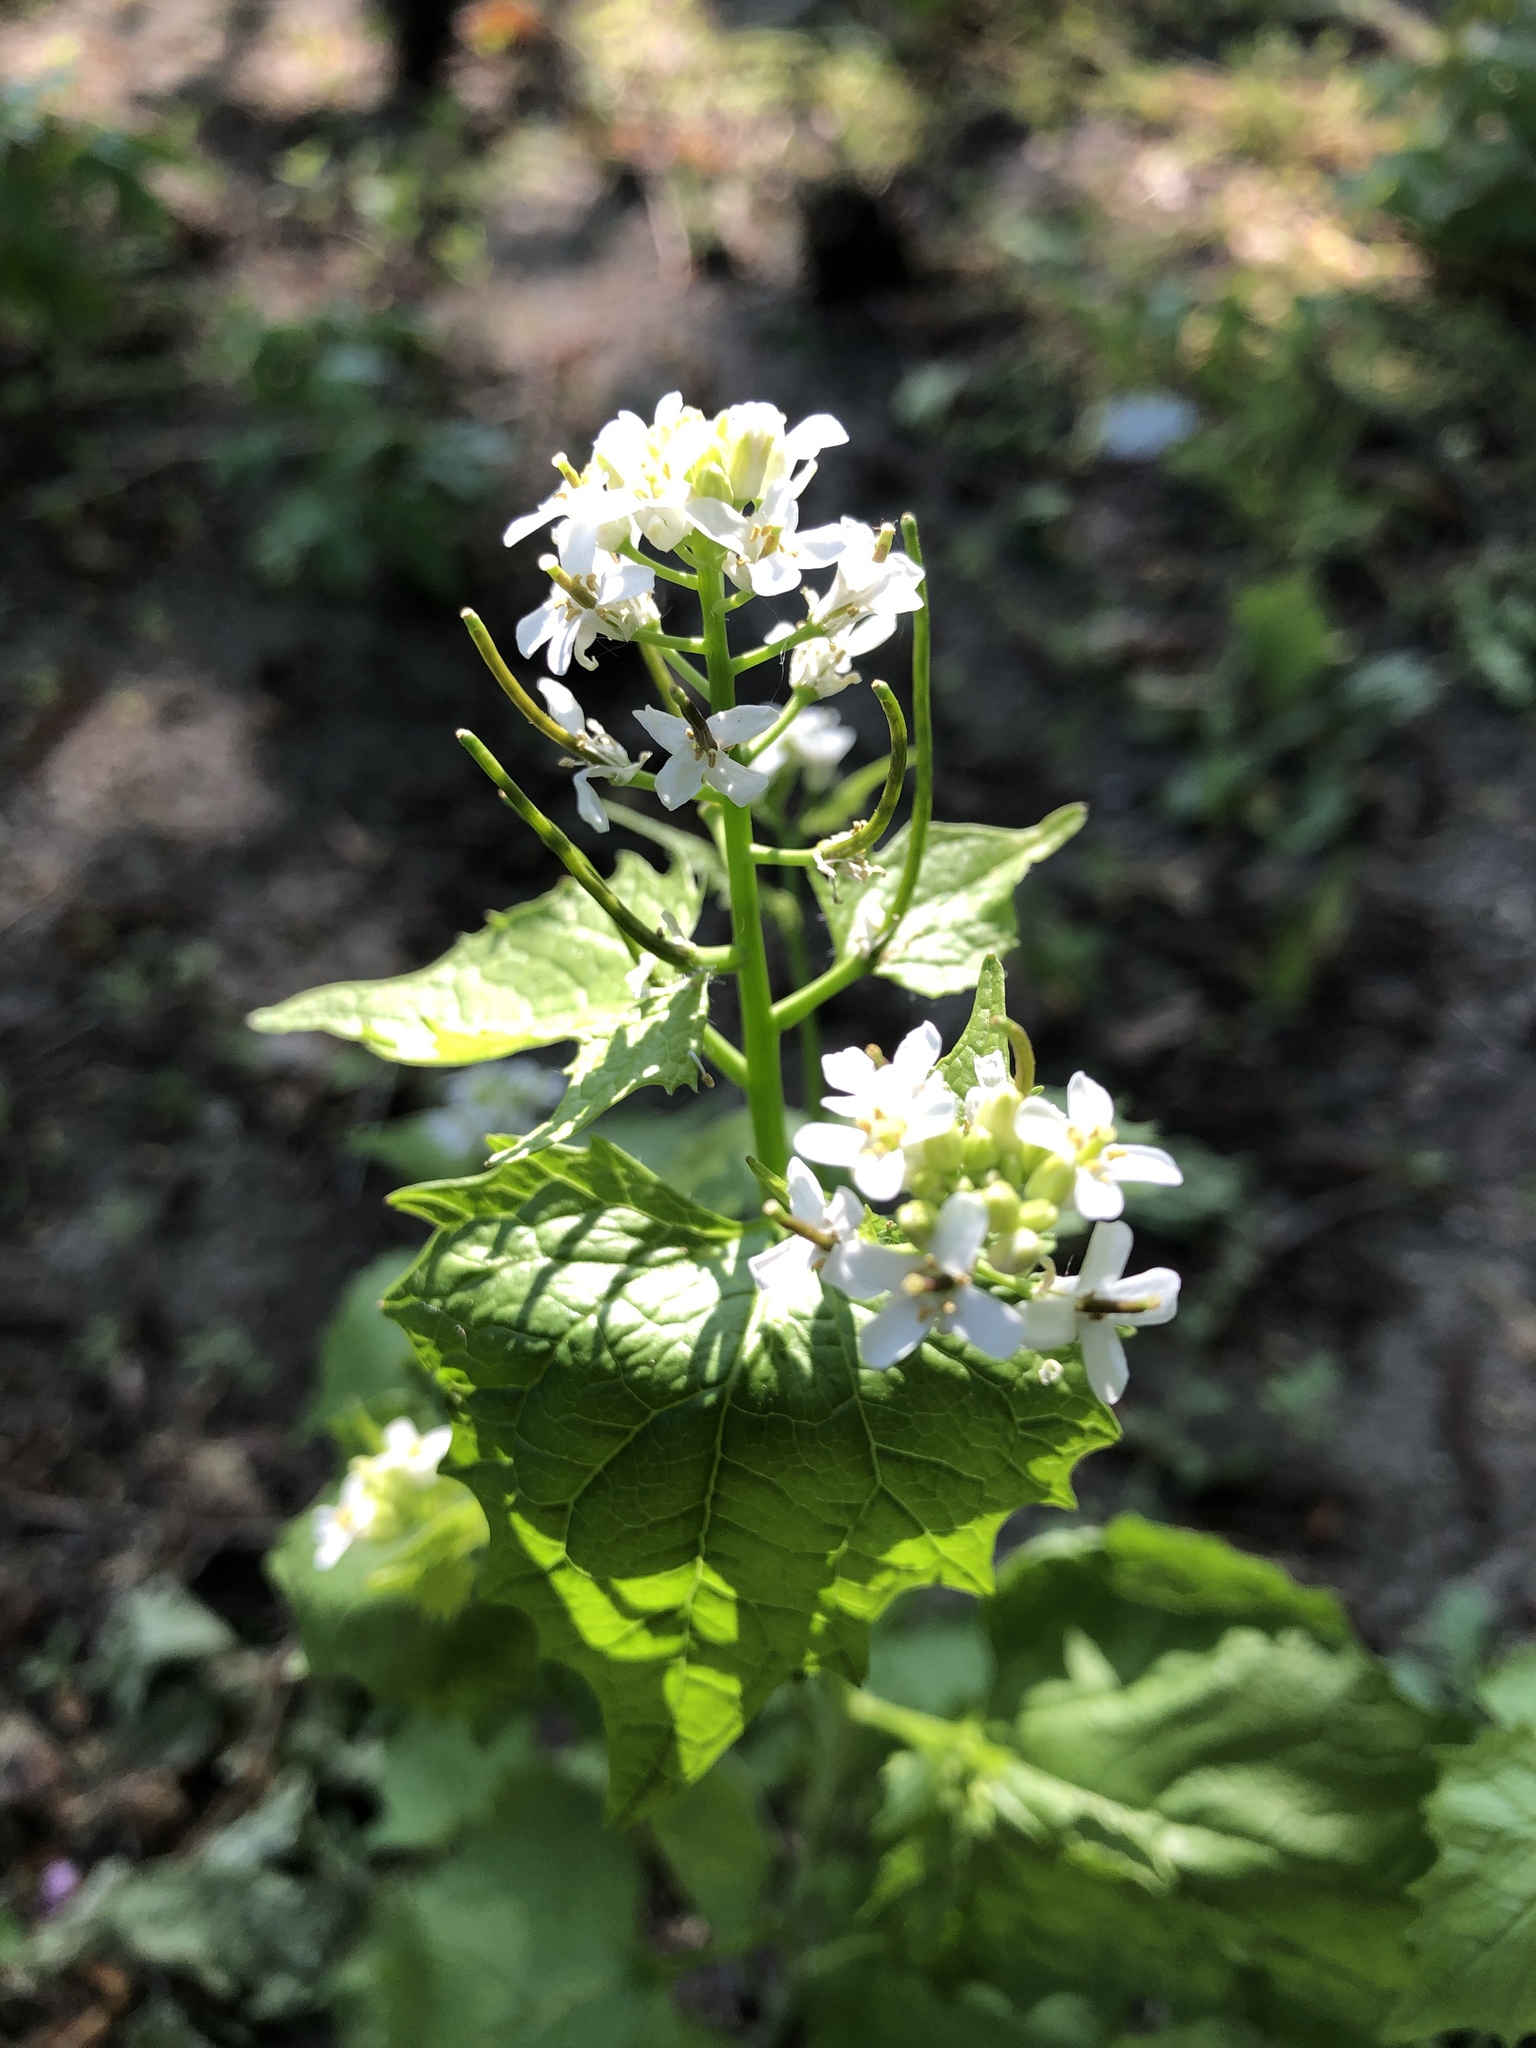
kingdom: Plantae
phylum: Tracheophyta
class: Magnoliopsida
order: Brassicales
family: Brassicaceae
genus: Alliaria
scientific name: Alliaria petiolata
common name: Garlic mustard
